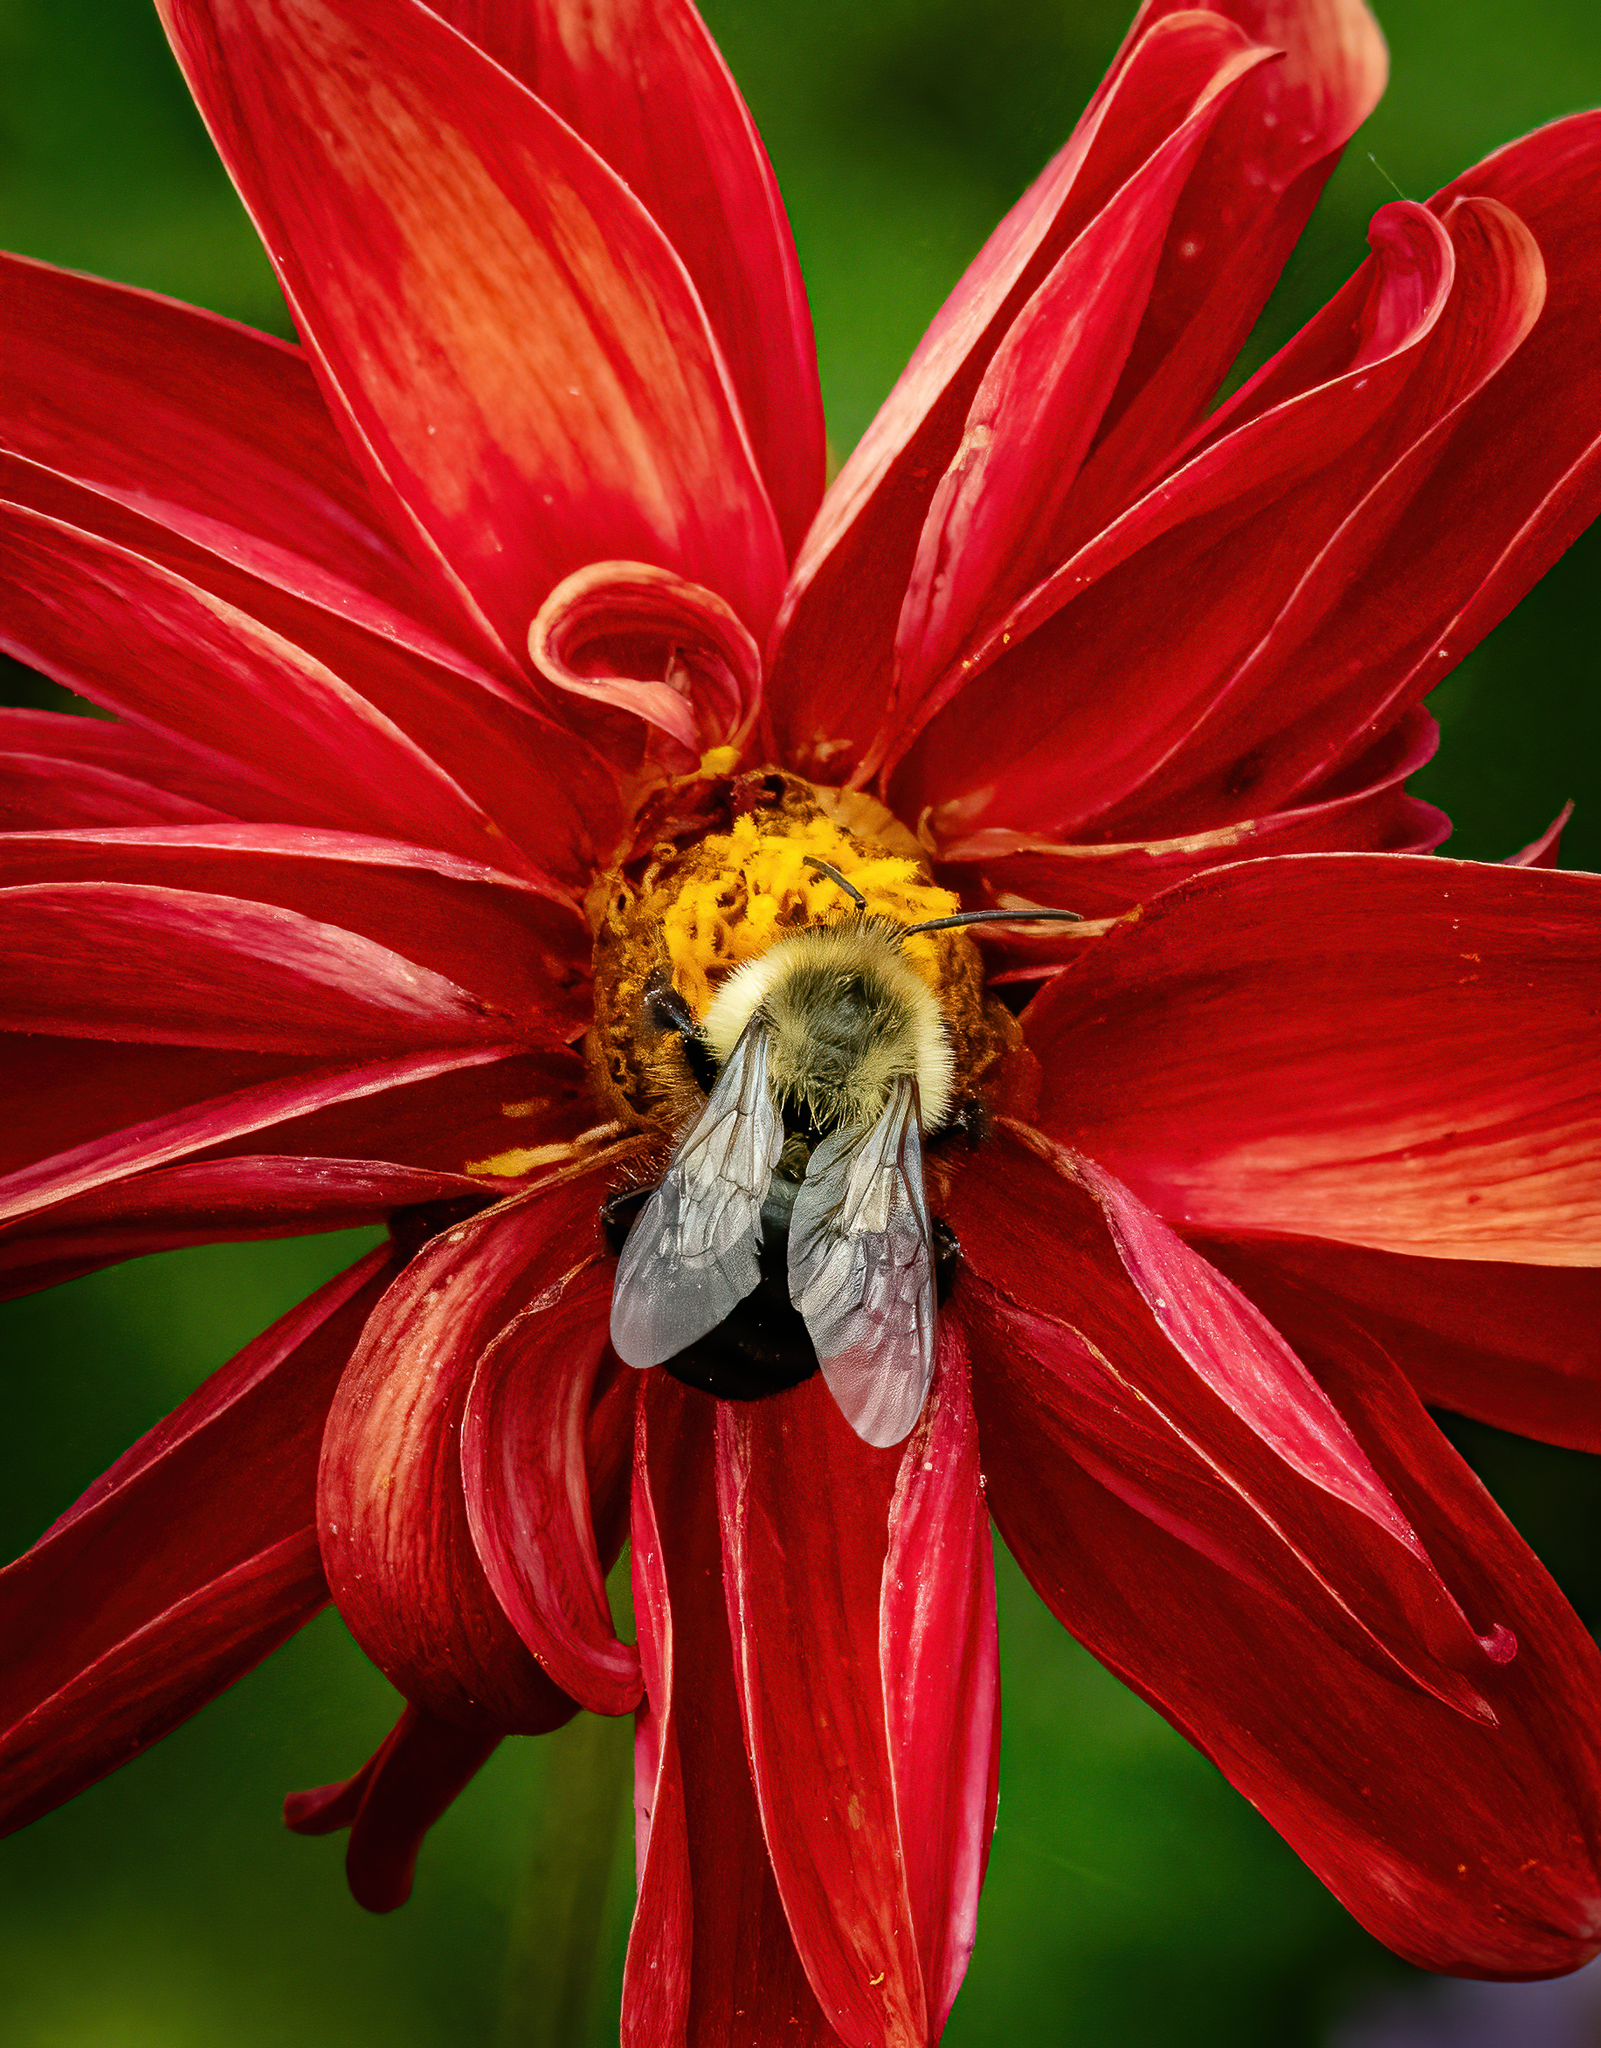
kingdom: Animalia
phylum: Arthropoda
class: Insecta
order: Hymenoptera
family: Apidae
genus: Bombus
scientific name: Bombus impatiens
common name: Common eastern bumble bee
